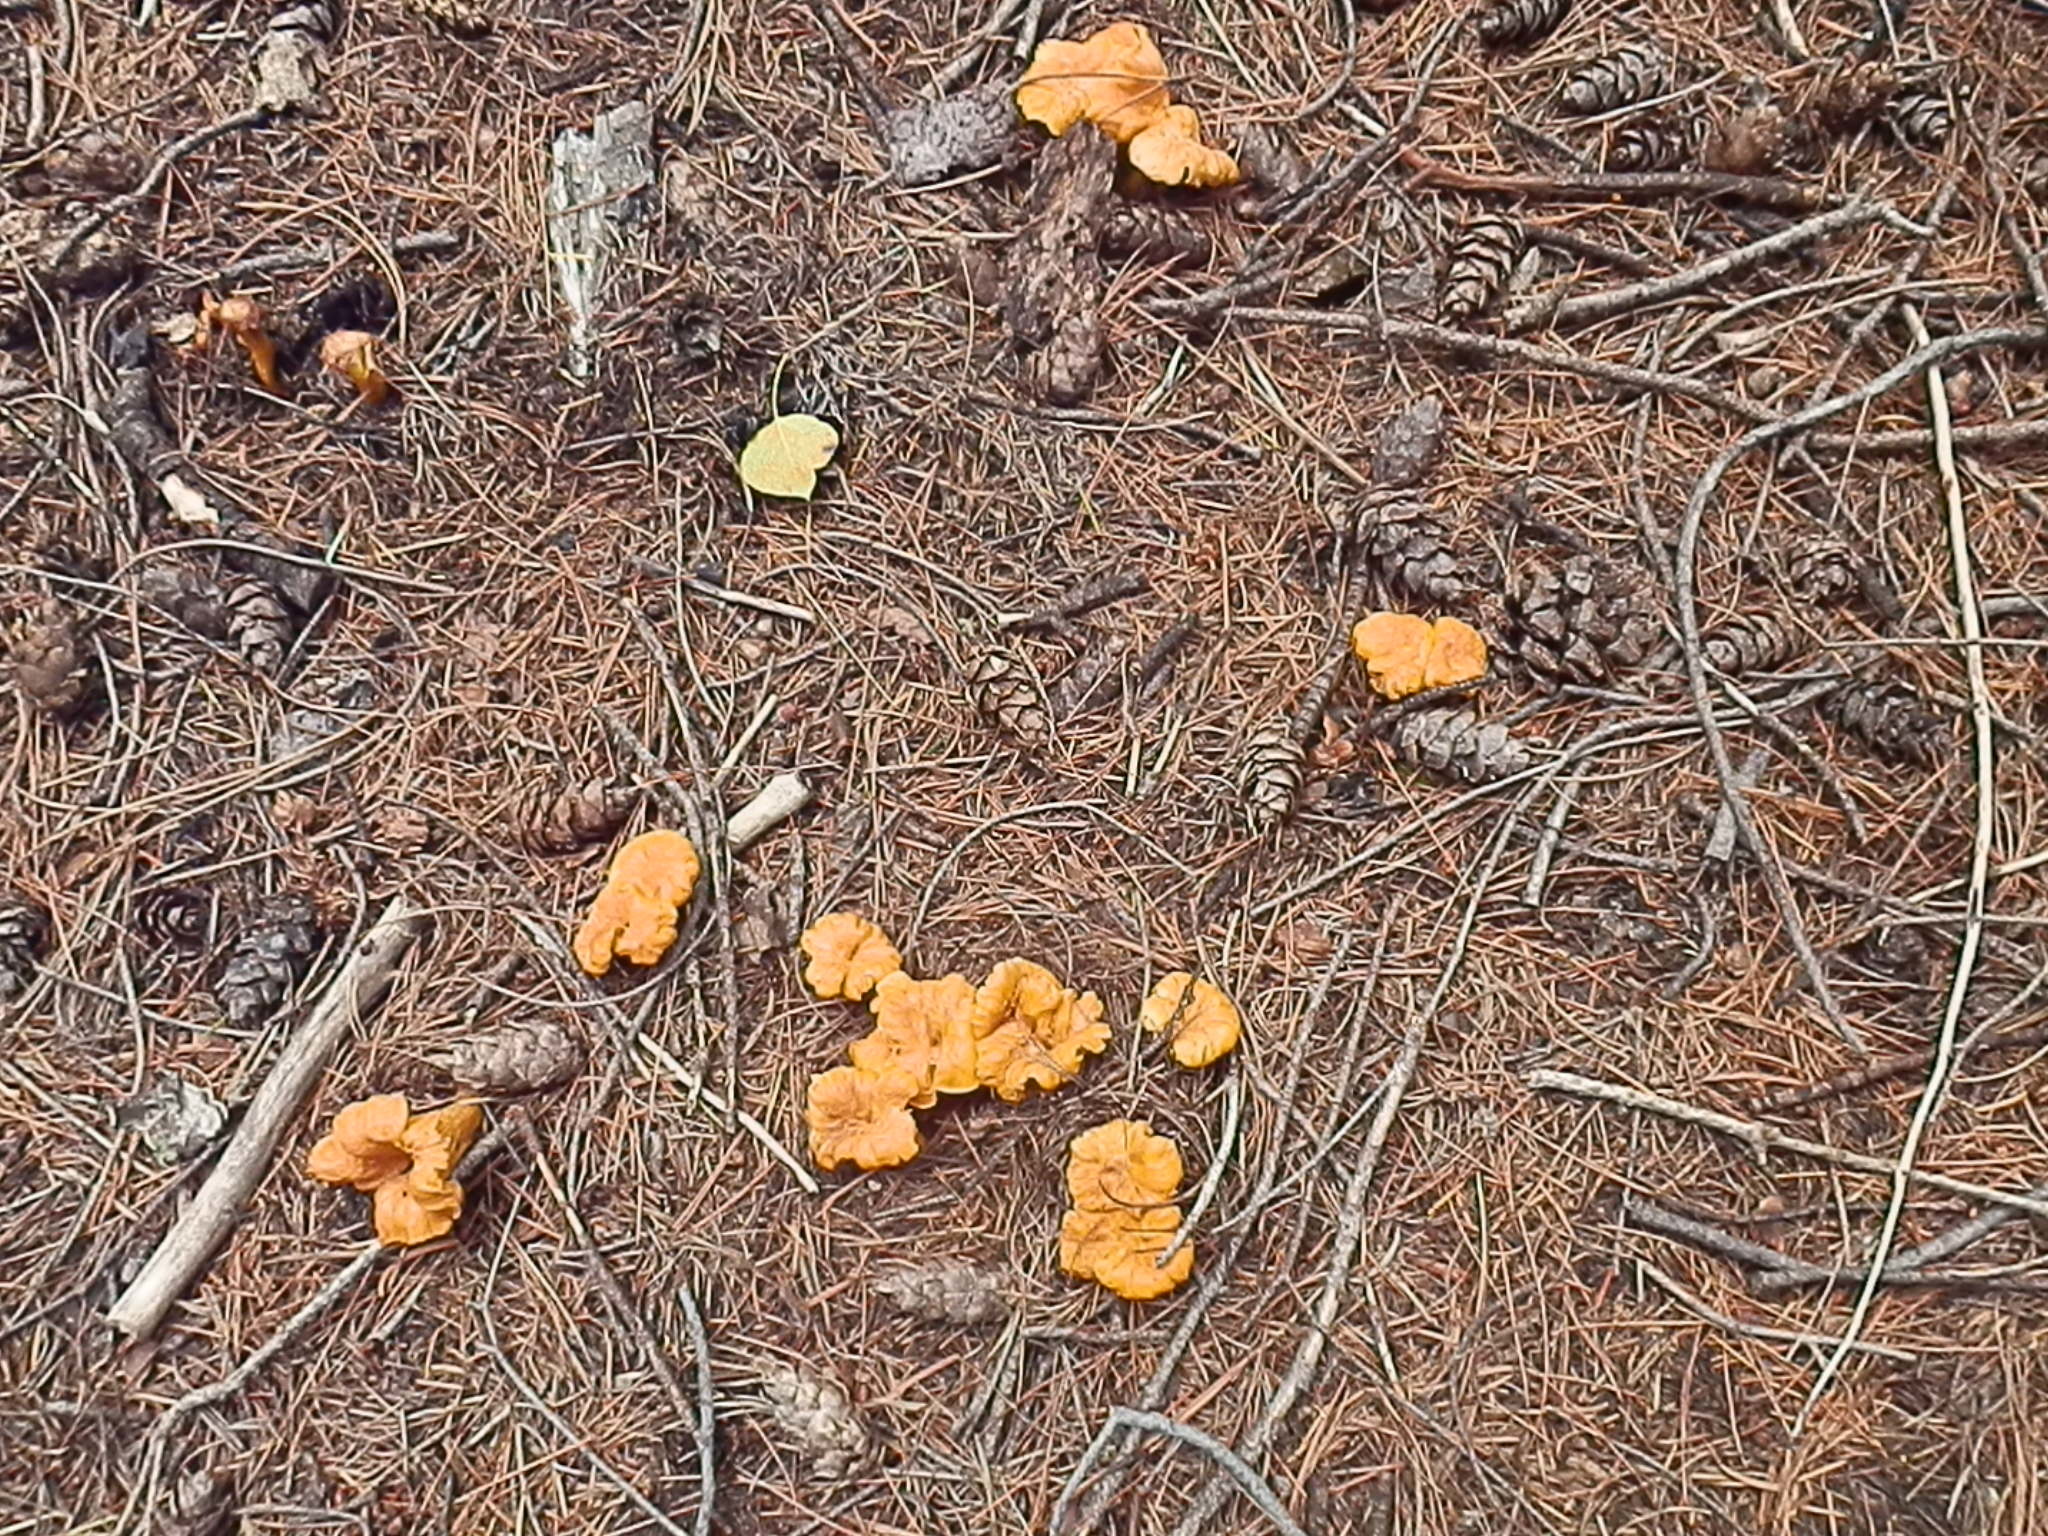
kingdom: Fungi
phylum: Basidiomycota
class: Agaricomycetes
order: Cantharellales
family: Hydnaceae
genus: Cantharellus
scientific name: Cantharellus roseocanus
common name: Rainbow chanterelle
